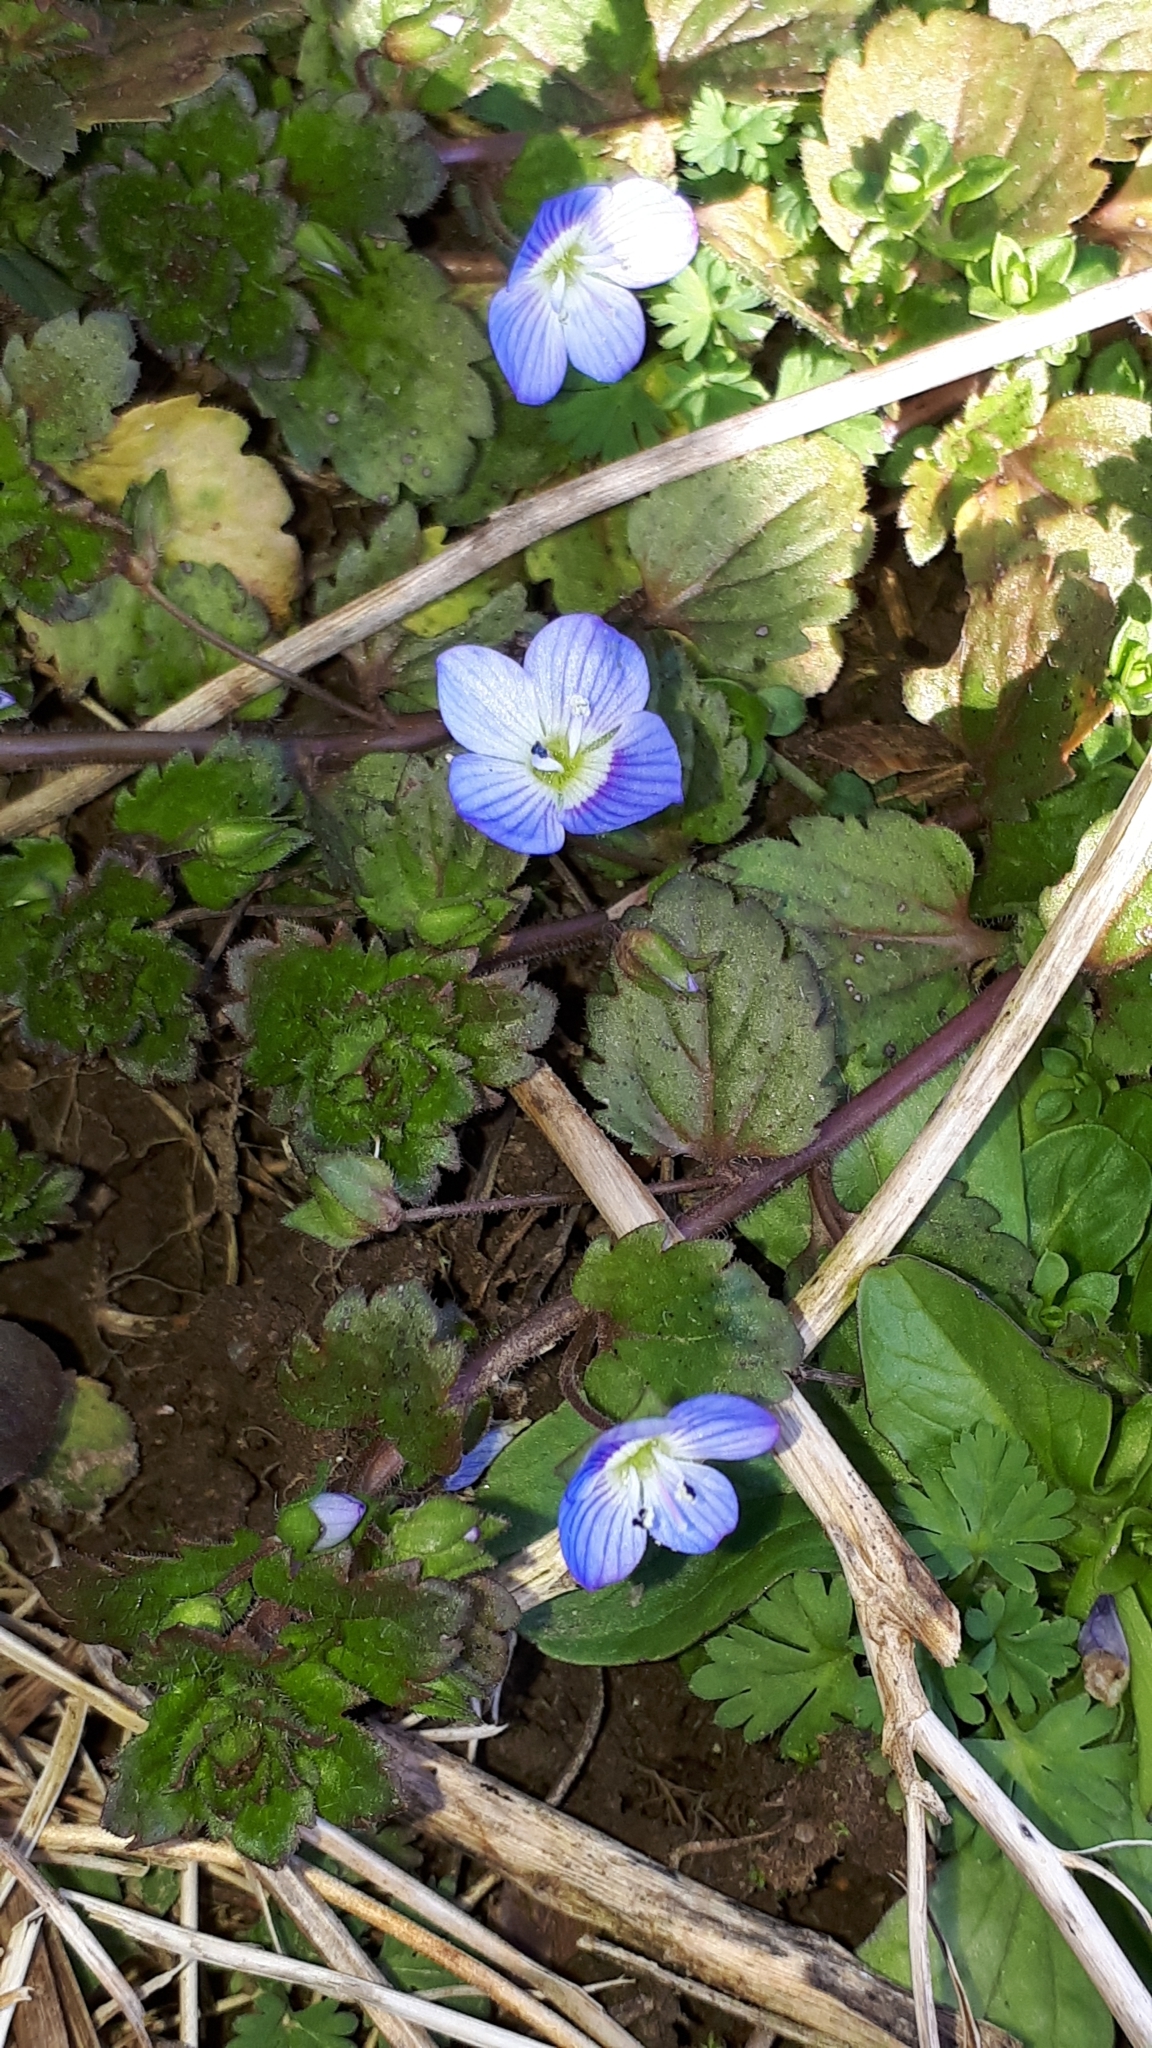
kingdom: Plantae
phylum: Tracheophyta
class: Magnoliopsida
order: Lamiales
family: Plantaginaceae
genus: Veronica
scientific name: Veronica persica
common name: Common field-speedwell
